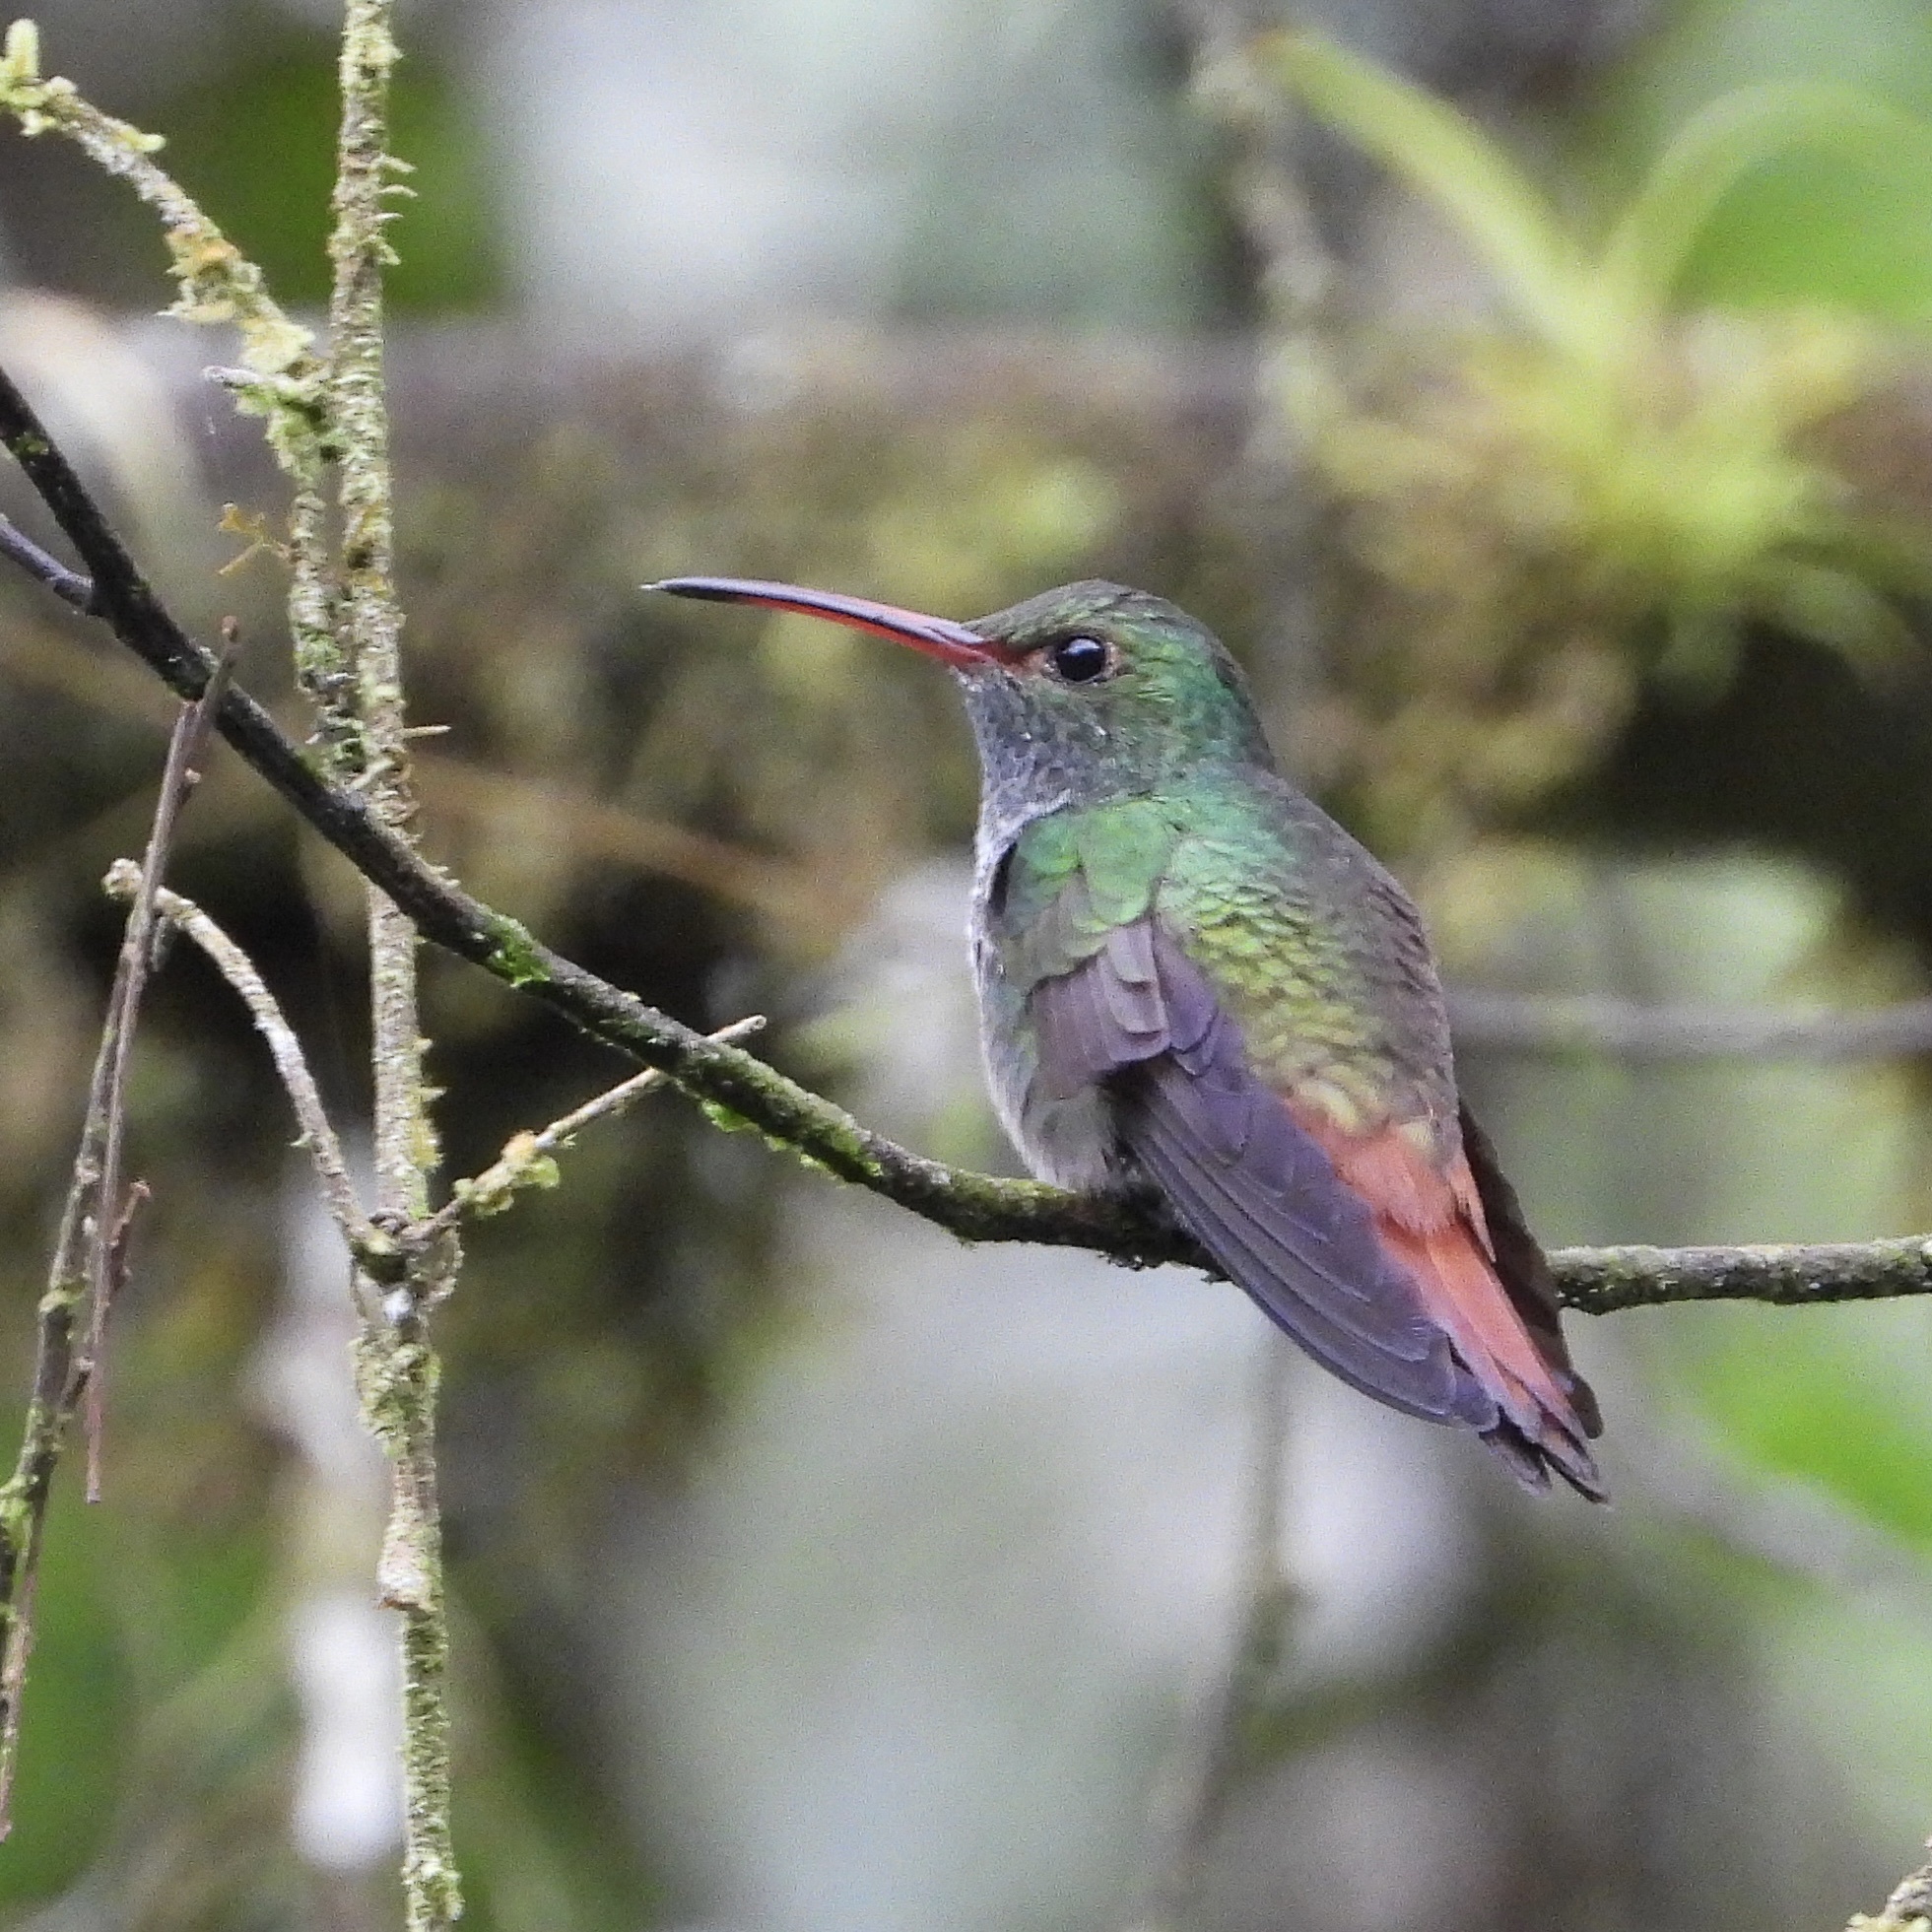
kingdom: Animalia
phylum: Chordata
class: Aves
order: Apodiformes
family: Trochilidae
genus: Amazilia
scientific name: Amazilia tzacatl
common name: Rufous-tailed hummingbird
